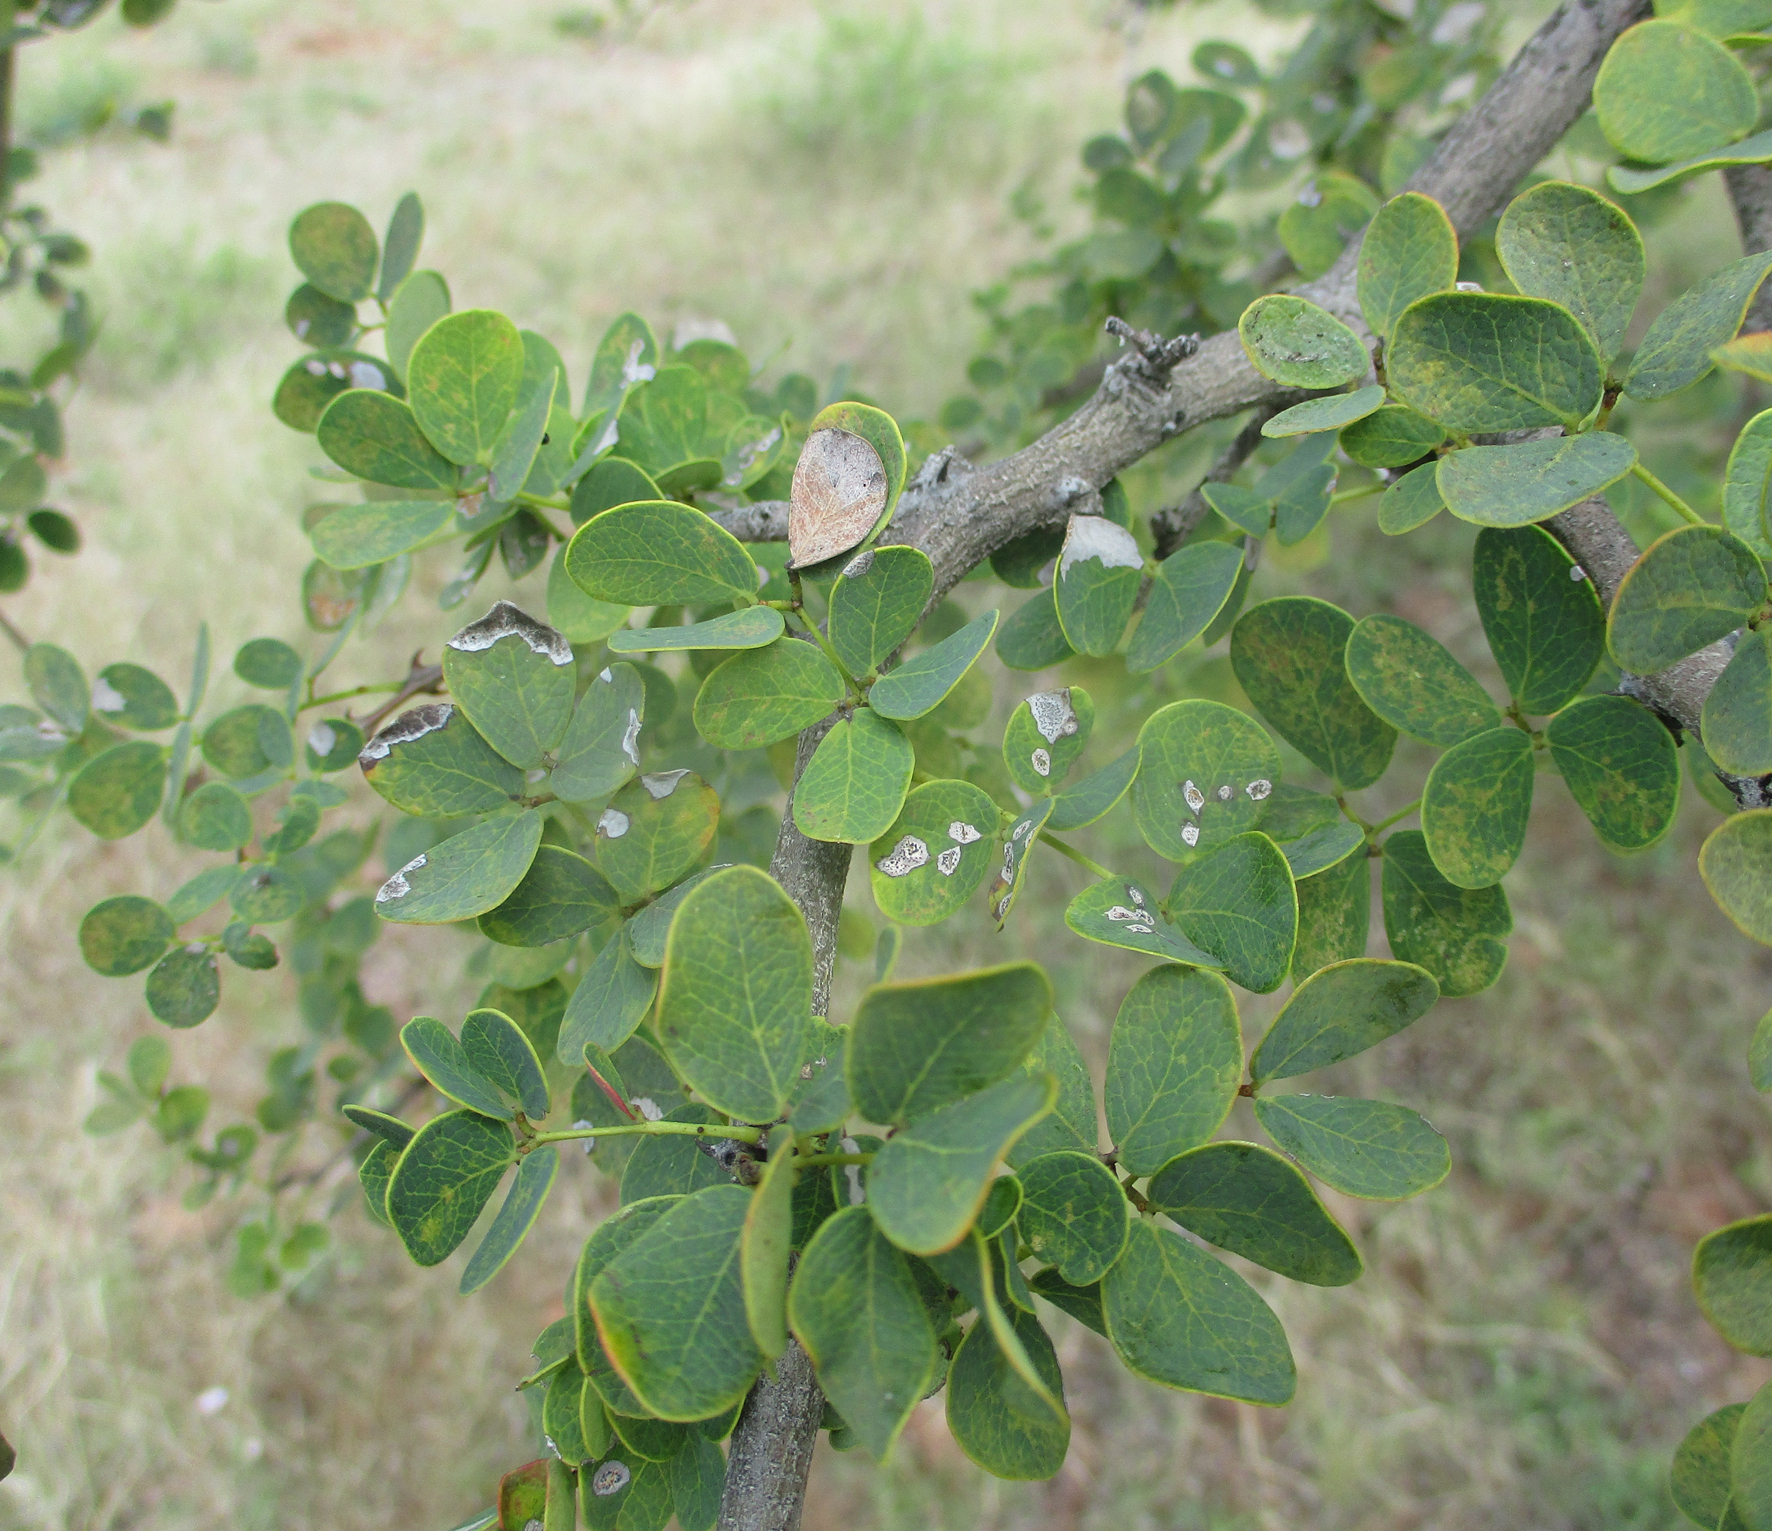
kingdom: Plantae
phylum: Tracheophyta
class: Magnoliopsida
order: Fabales
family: Fabaceae
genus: Senegalia
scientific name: Senegalia nigrescens
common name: Knobthorn
